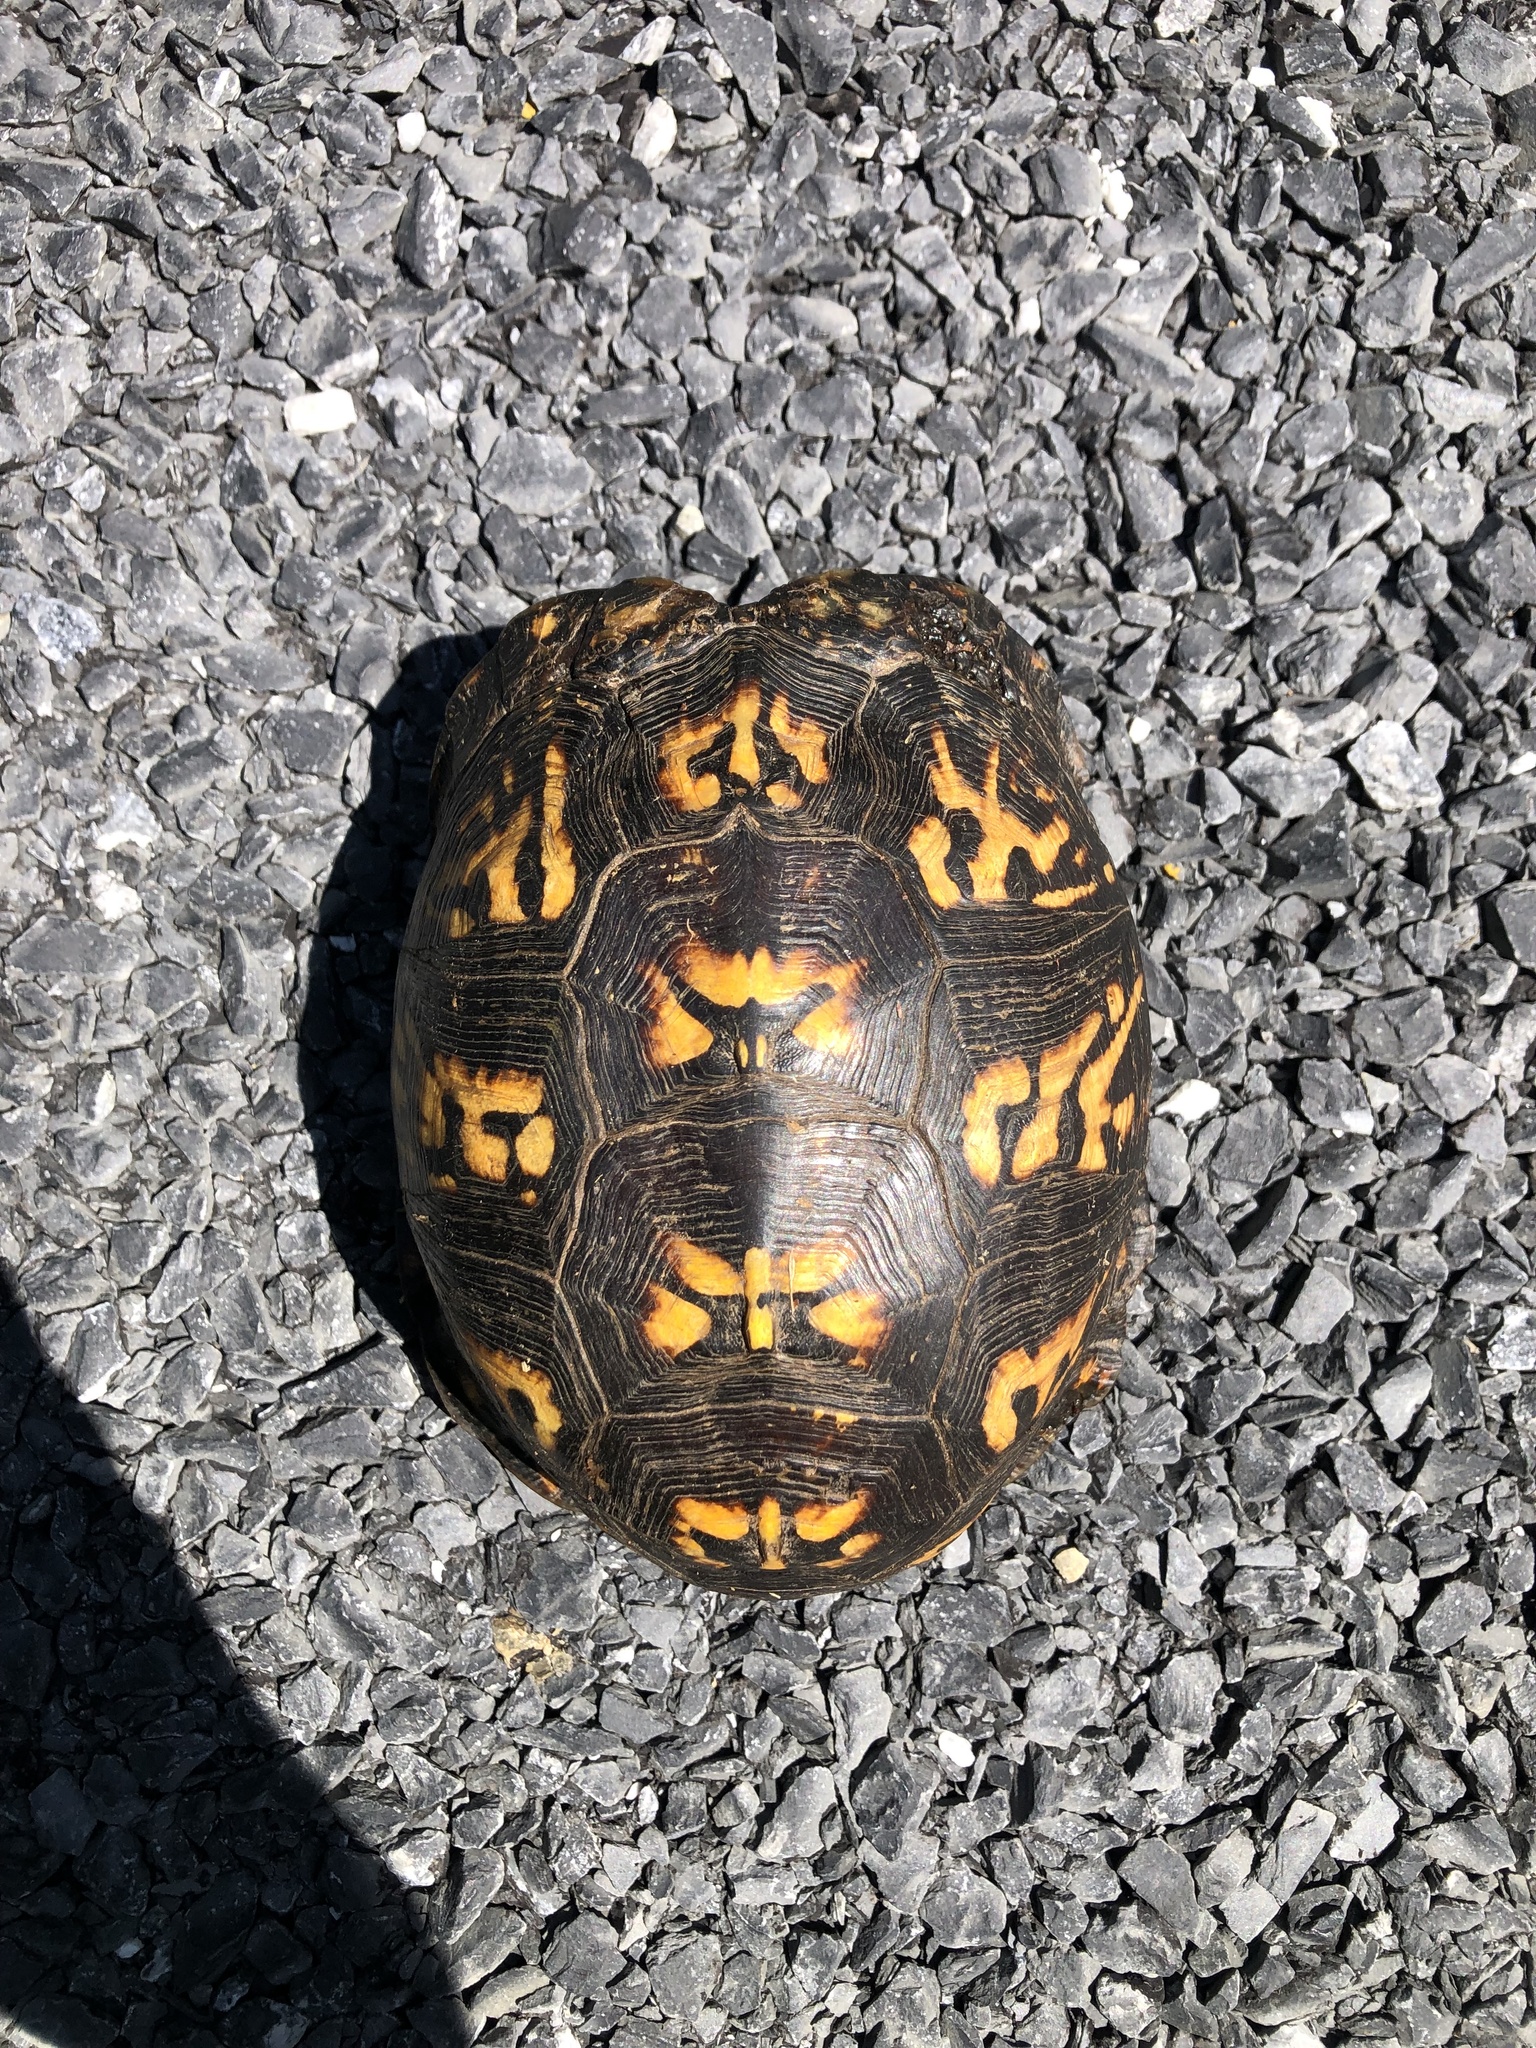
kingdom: Animalia
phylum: Chordata
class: Testudines
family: Emydidae
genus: Terrapene
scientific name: Terrapene carolina
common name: Common box turtle
